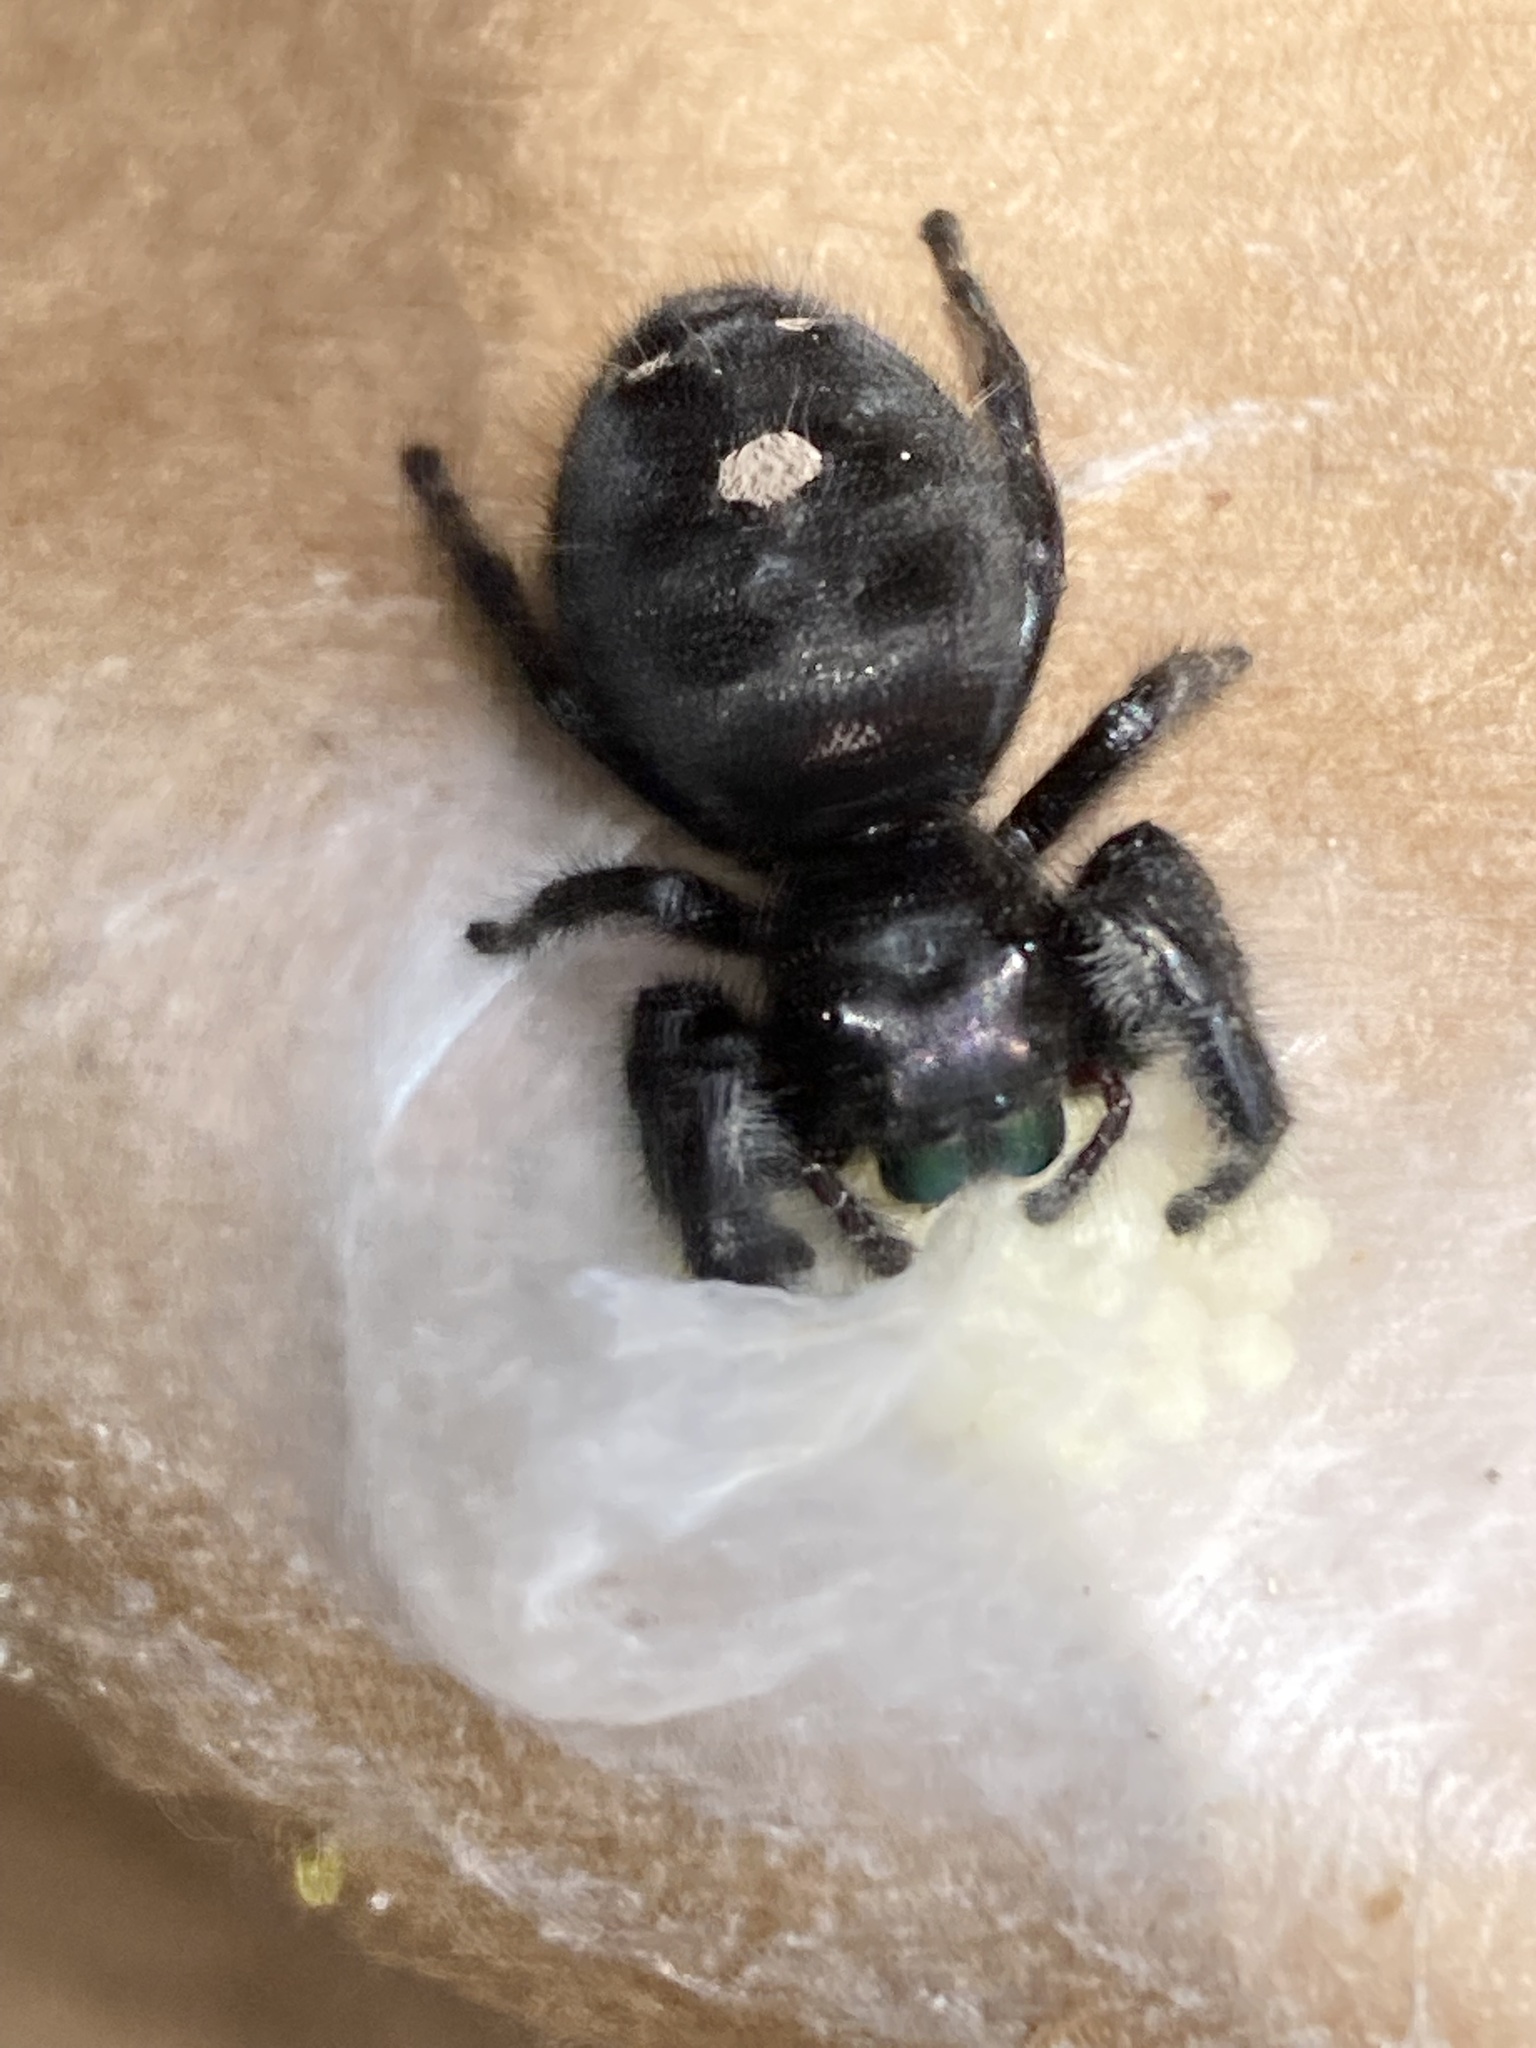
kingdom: Animalia
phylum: Arthropoda
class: Arachnida
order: Araneae
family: Salticidae
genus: Phidippus
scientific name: Phidippus audax
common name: Bold jumper
